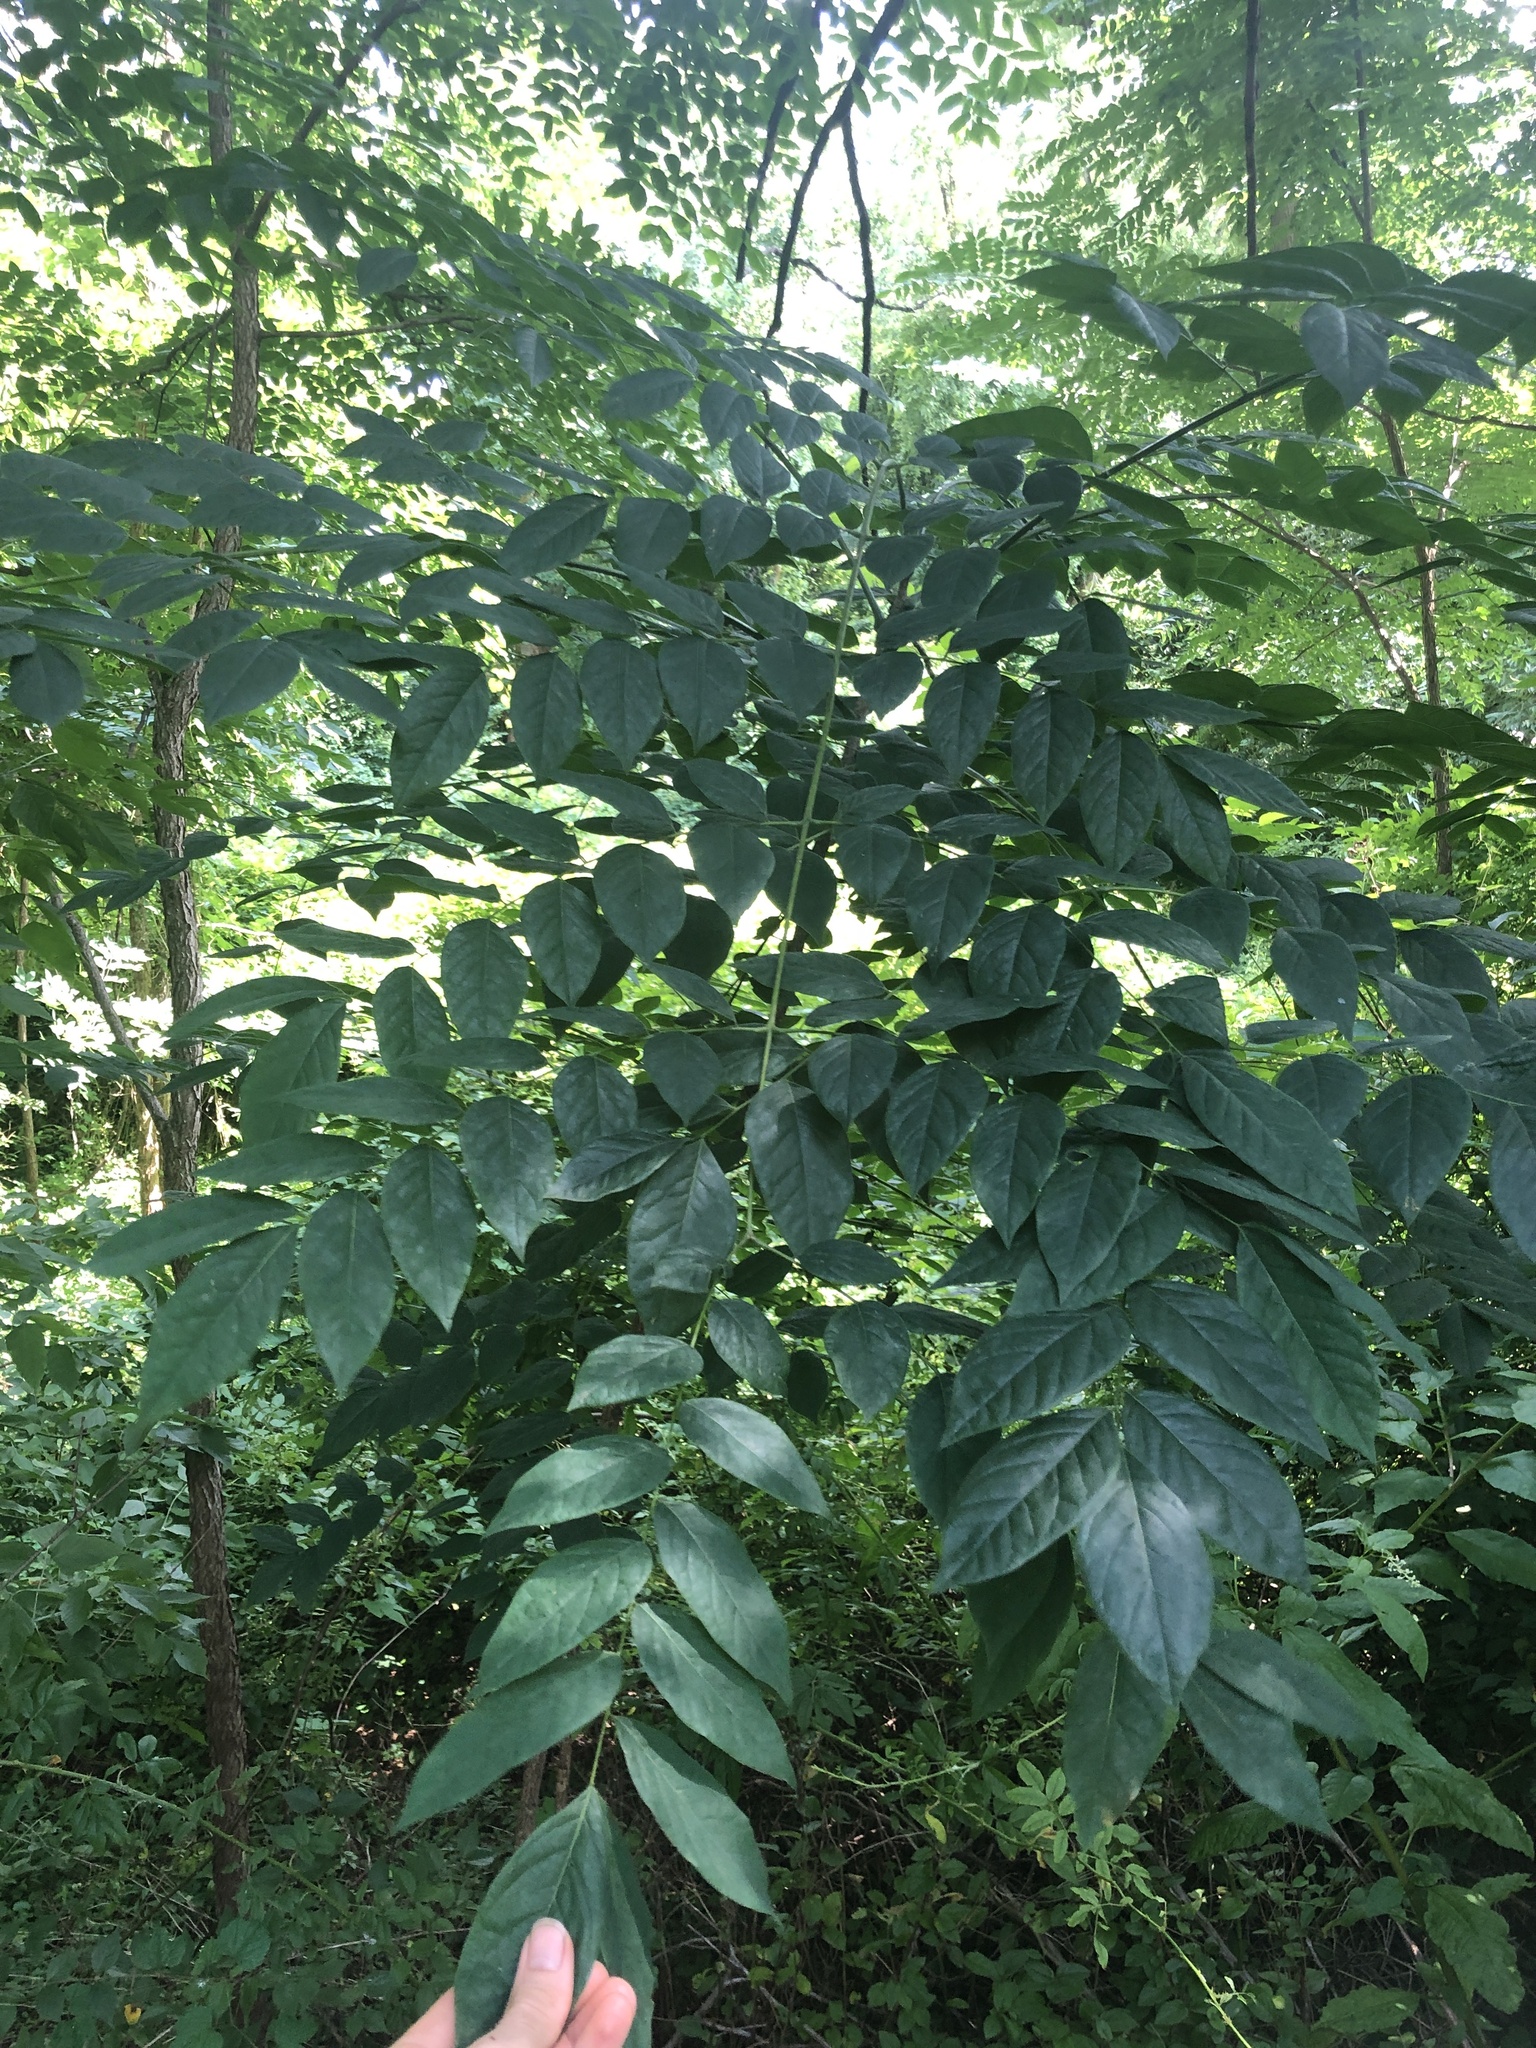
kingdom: Plantae
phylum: Tracheophyta
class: Magnoliopsida
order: Fabales
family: Fabaceae
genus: Gymnocladus
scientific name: Gymnocladus dioicus
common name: Kentucky coffee-tree
